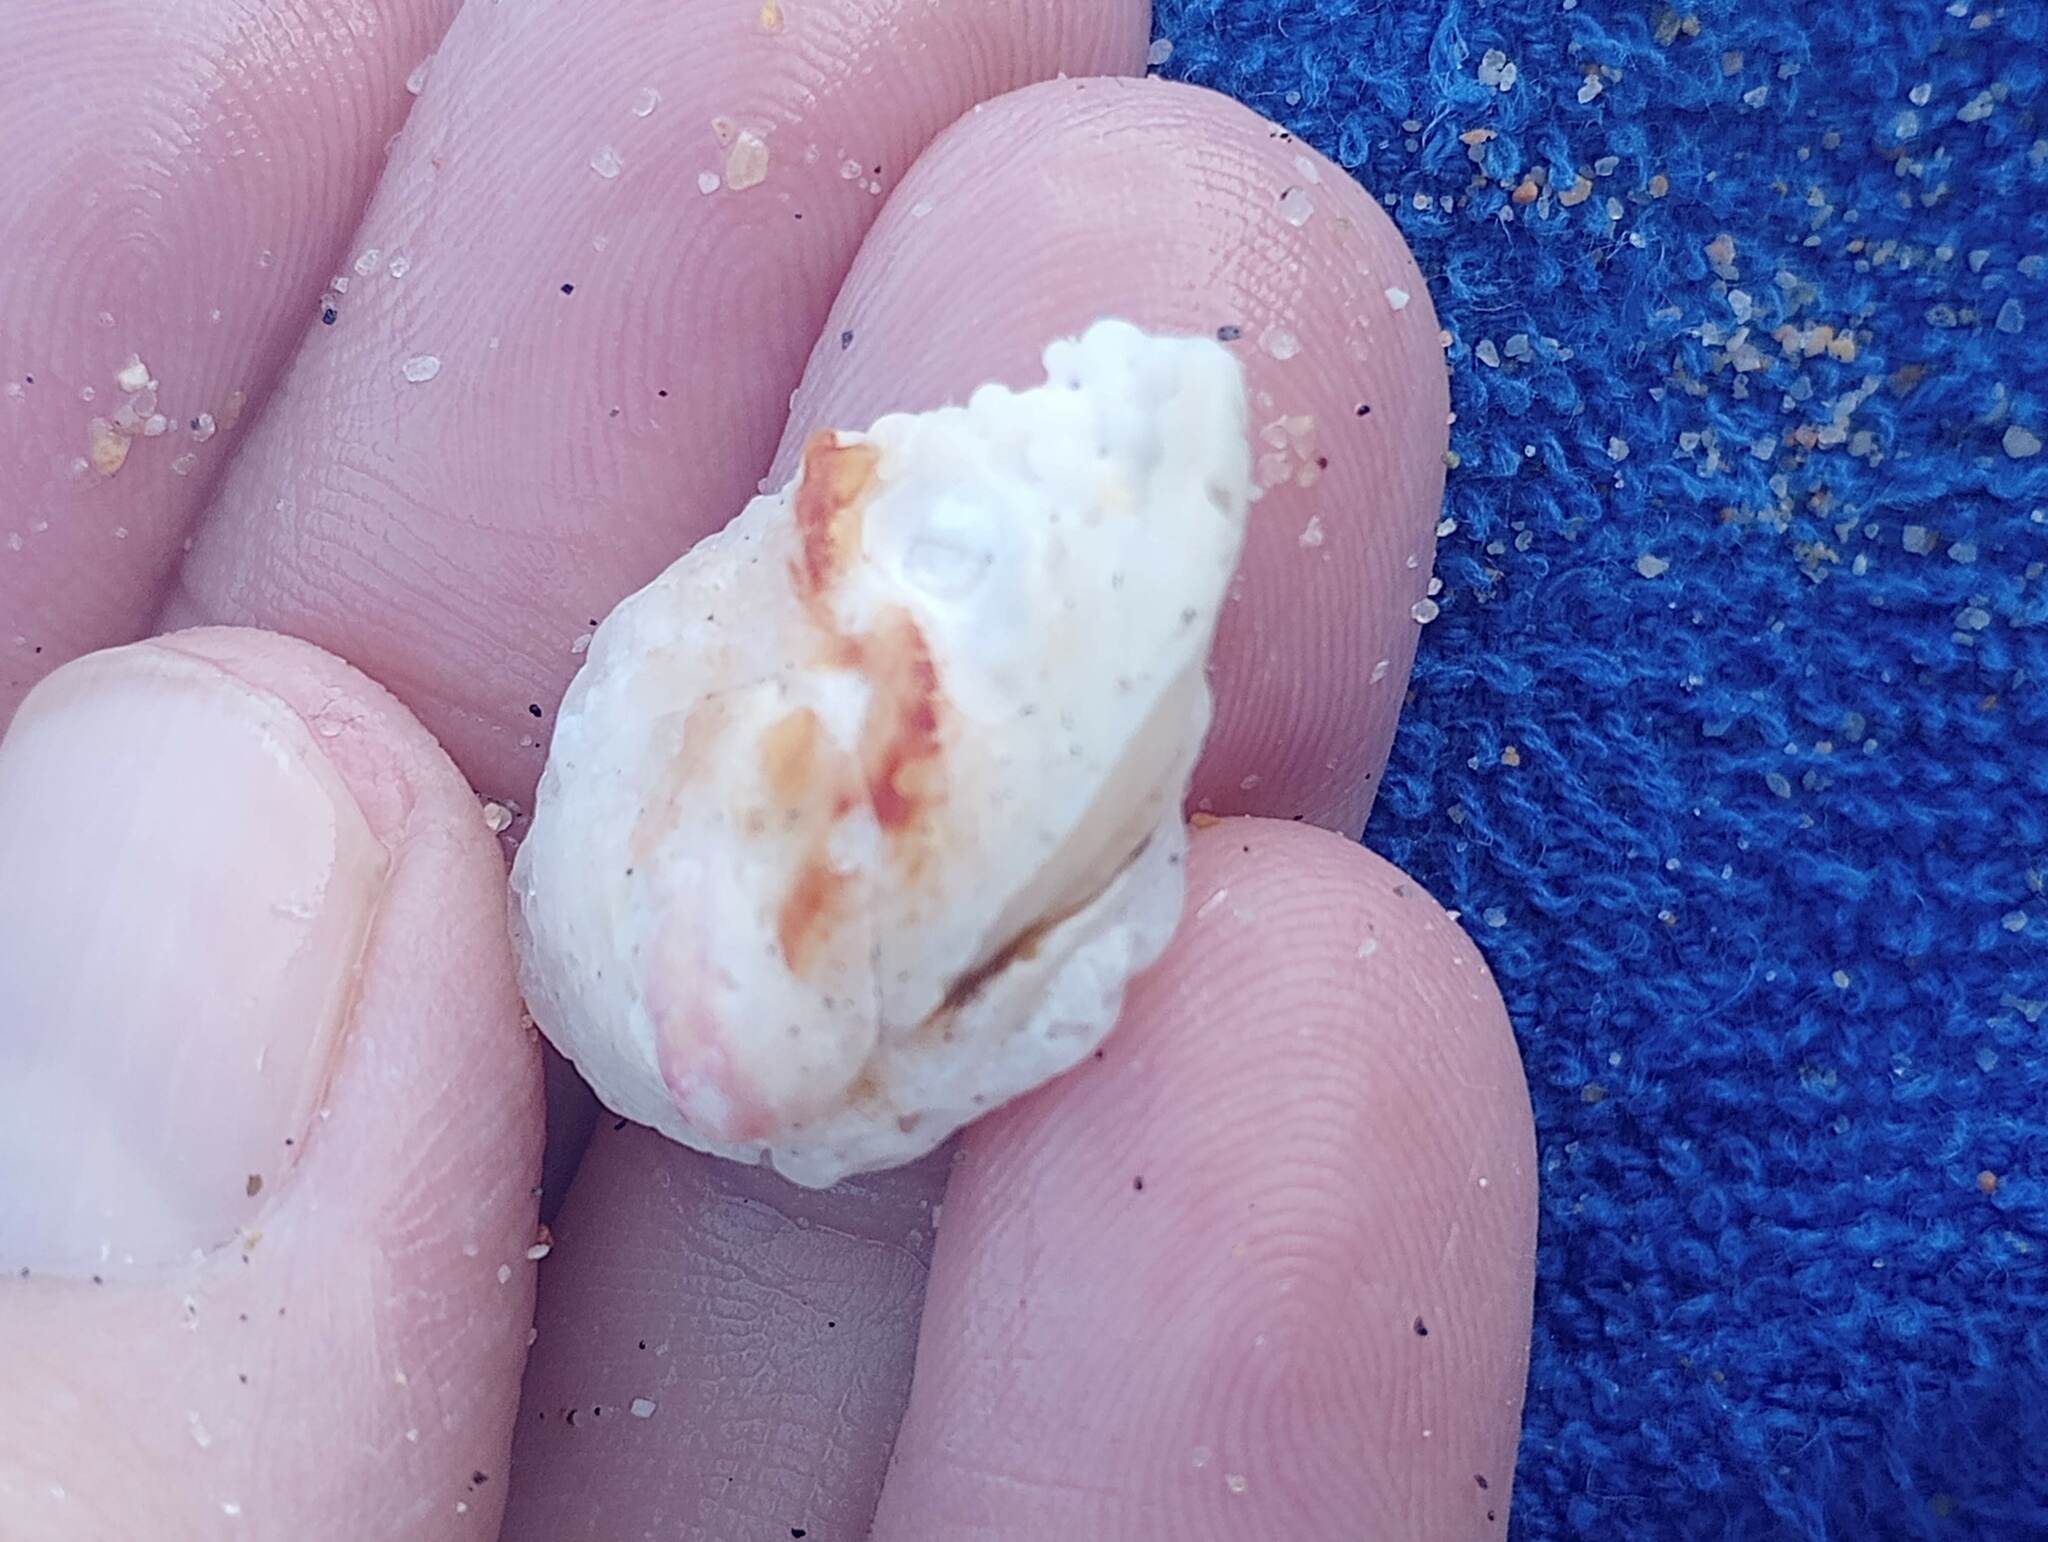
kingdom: Animalia
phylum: Mollusca
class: Bivalvia
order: Venerida
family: Chamidae
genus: Chama
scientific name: Chama arcana
